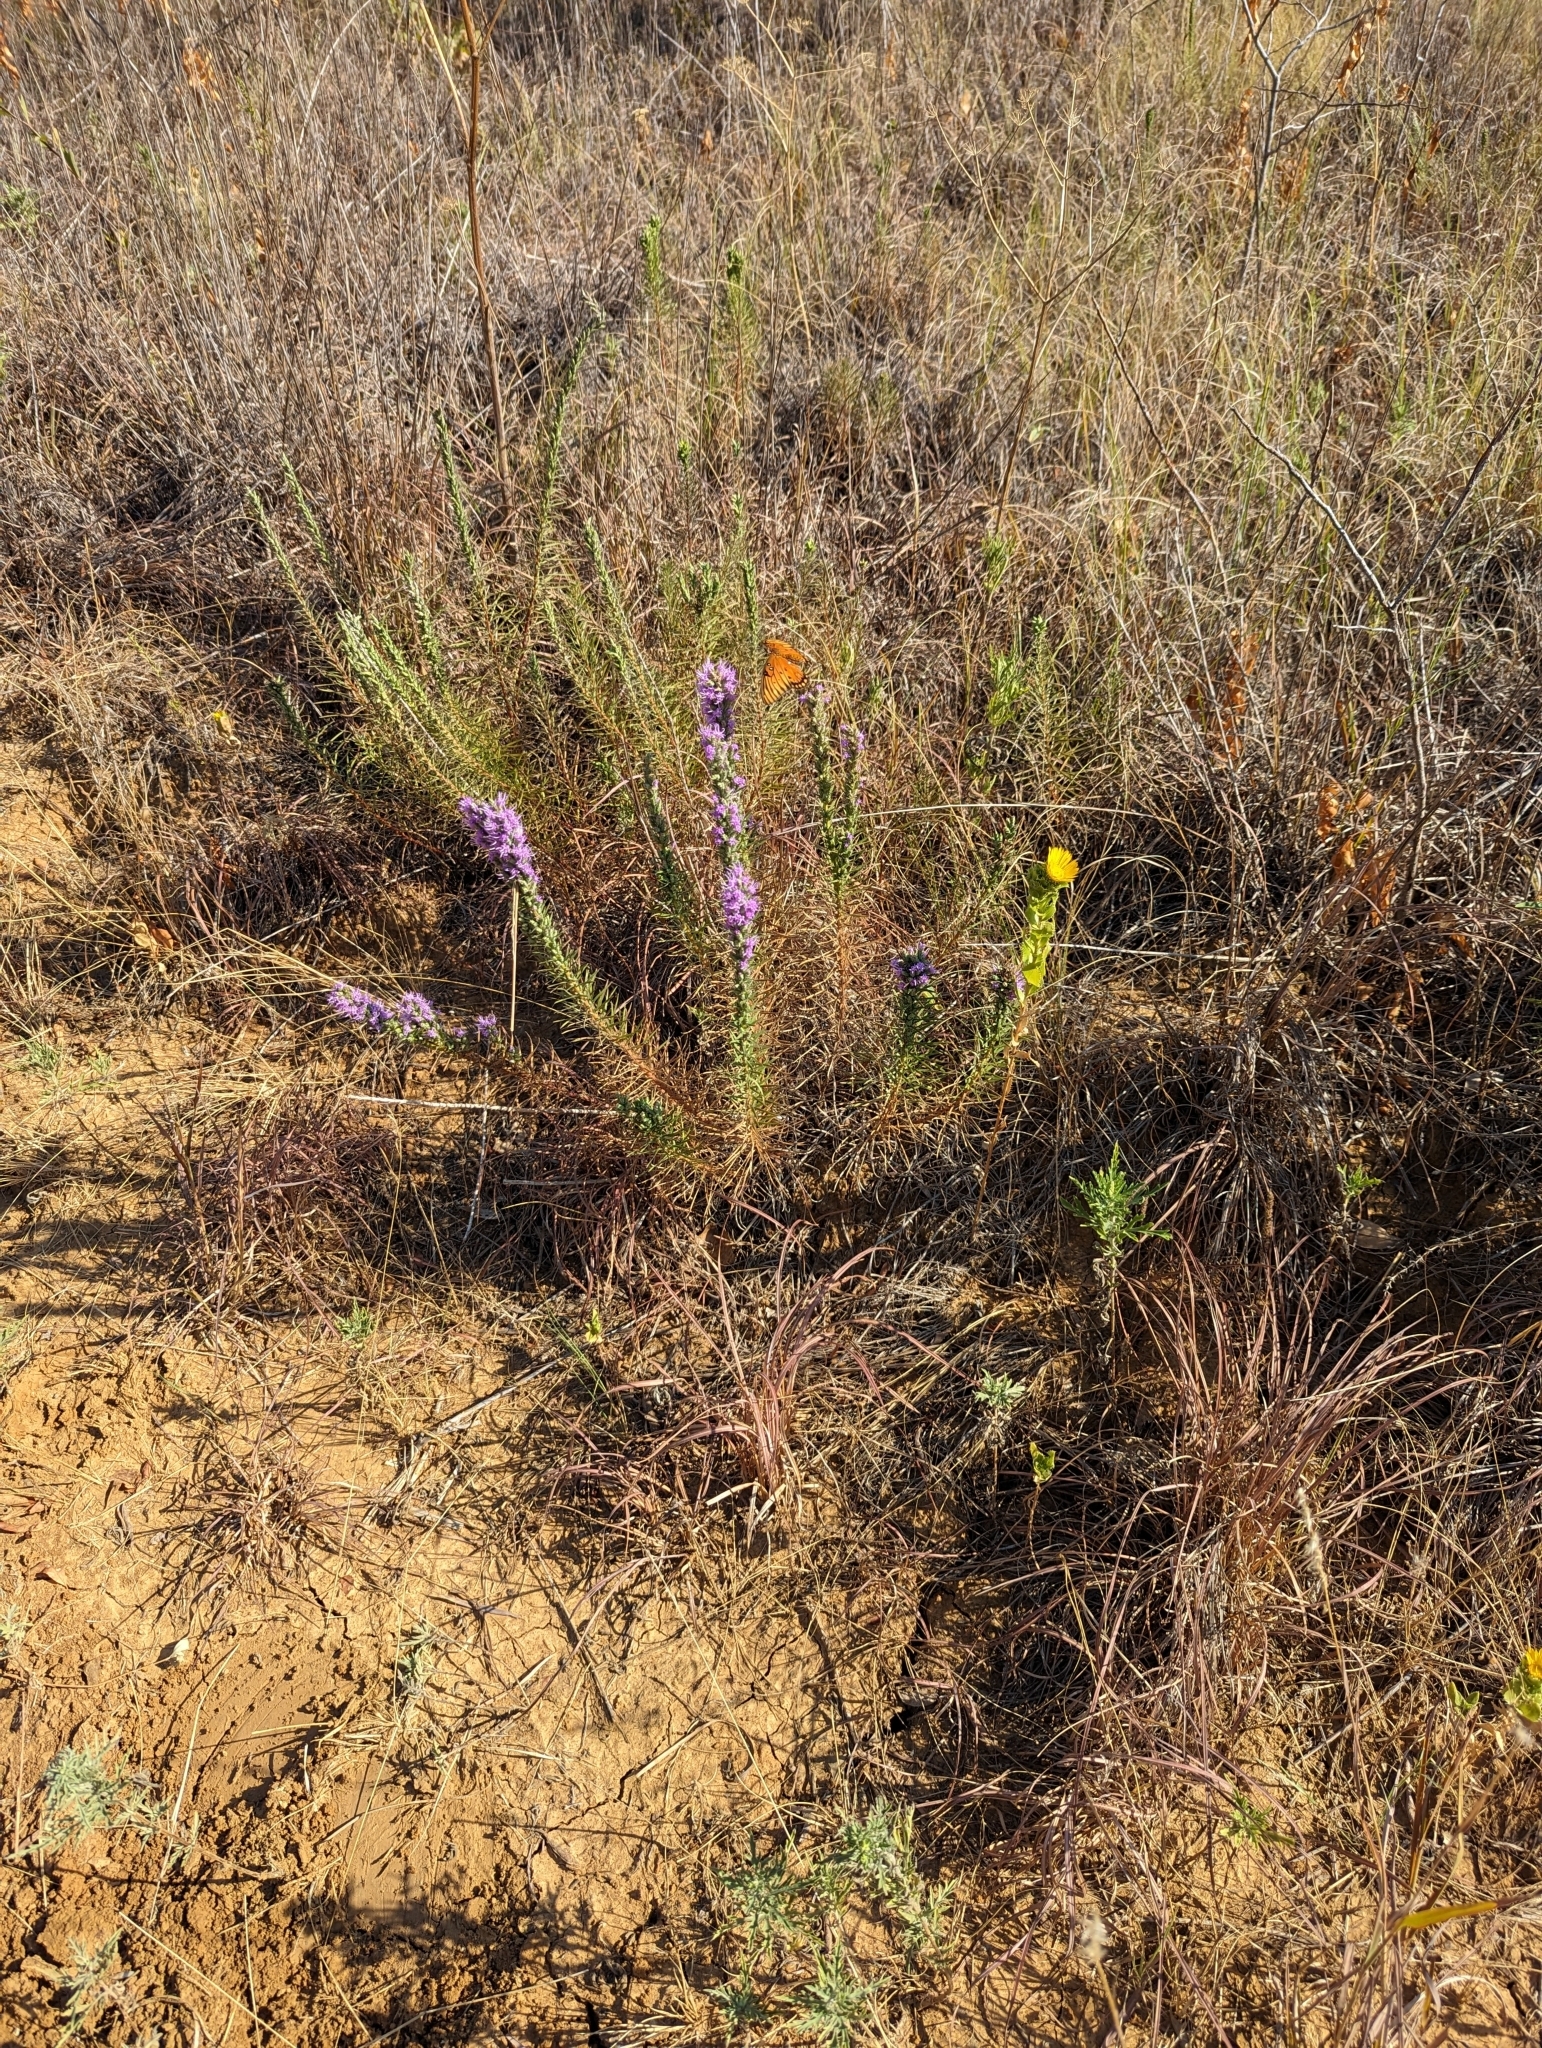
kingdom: Animalia
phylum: Arthropoda
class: Insecta
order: Lepidoptera
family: Nymphalidae
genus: Dione
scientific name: Dione vanillae
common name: Gulf fritillary
